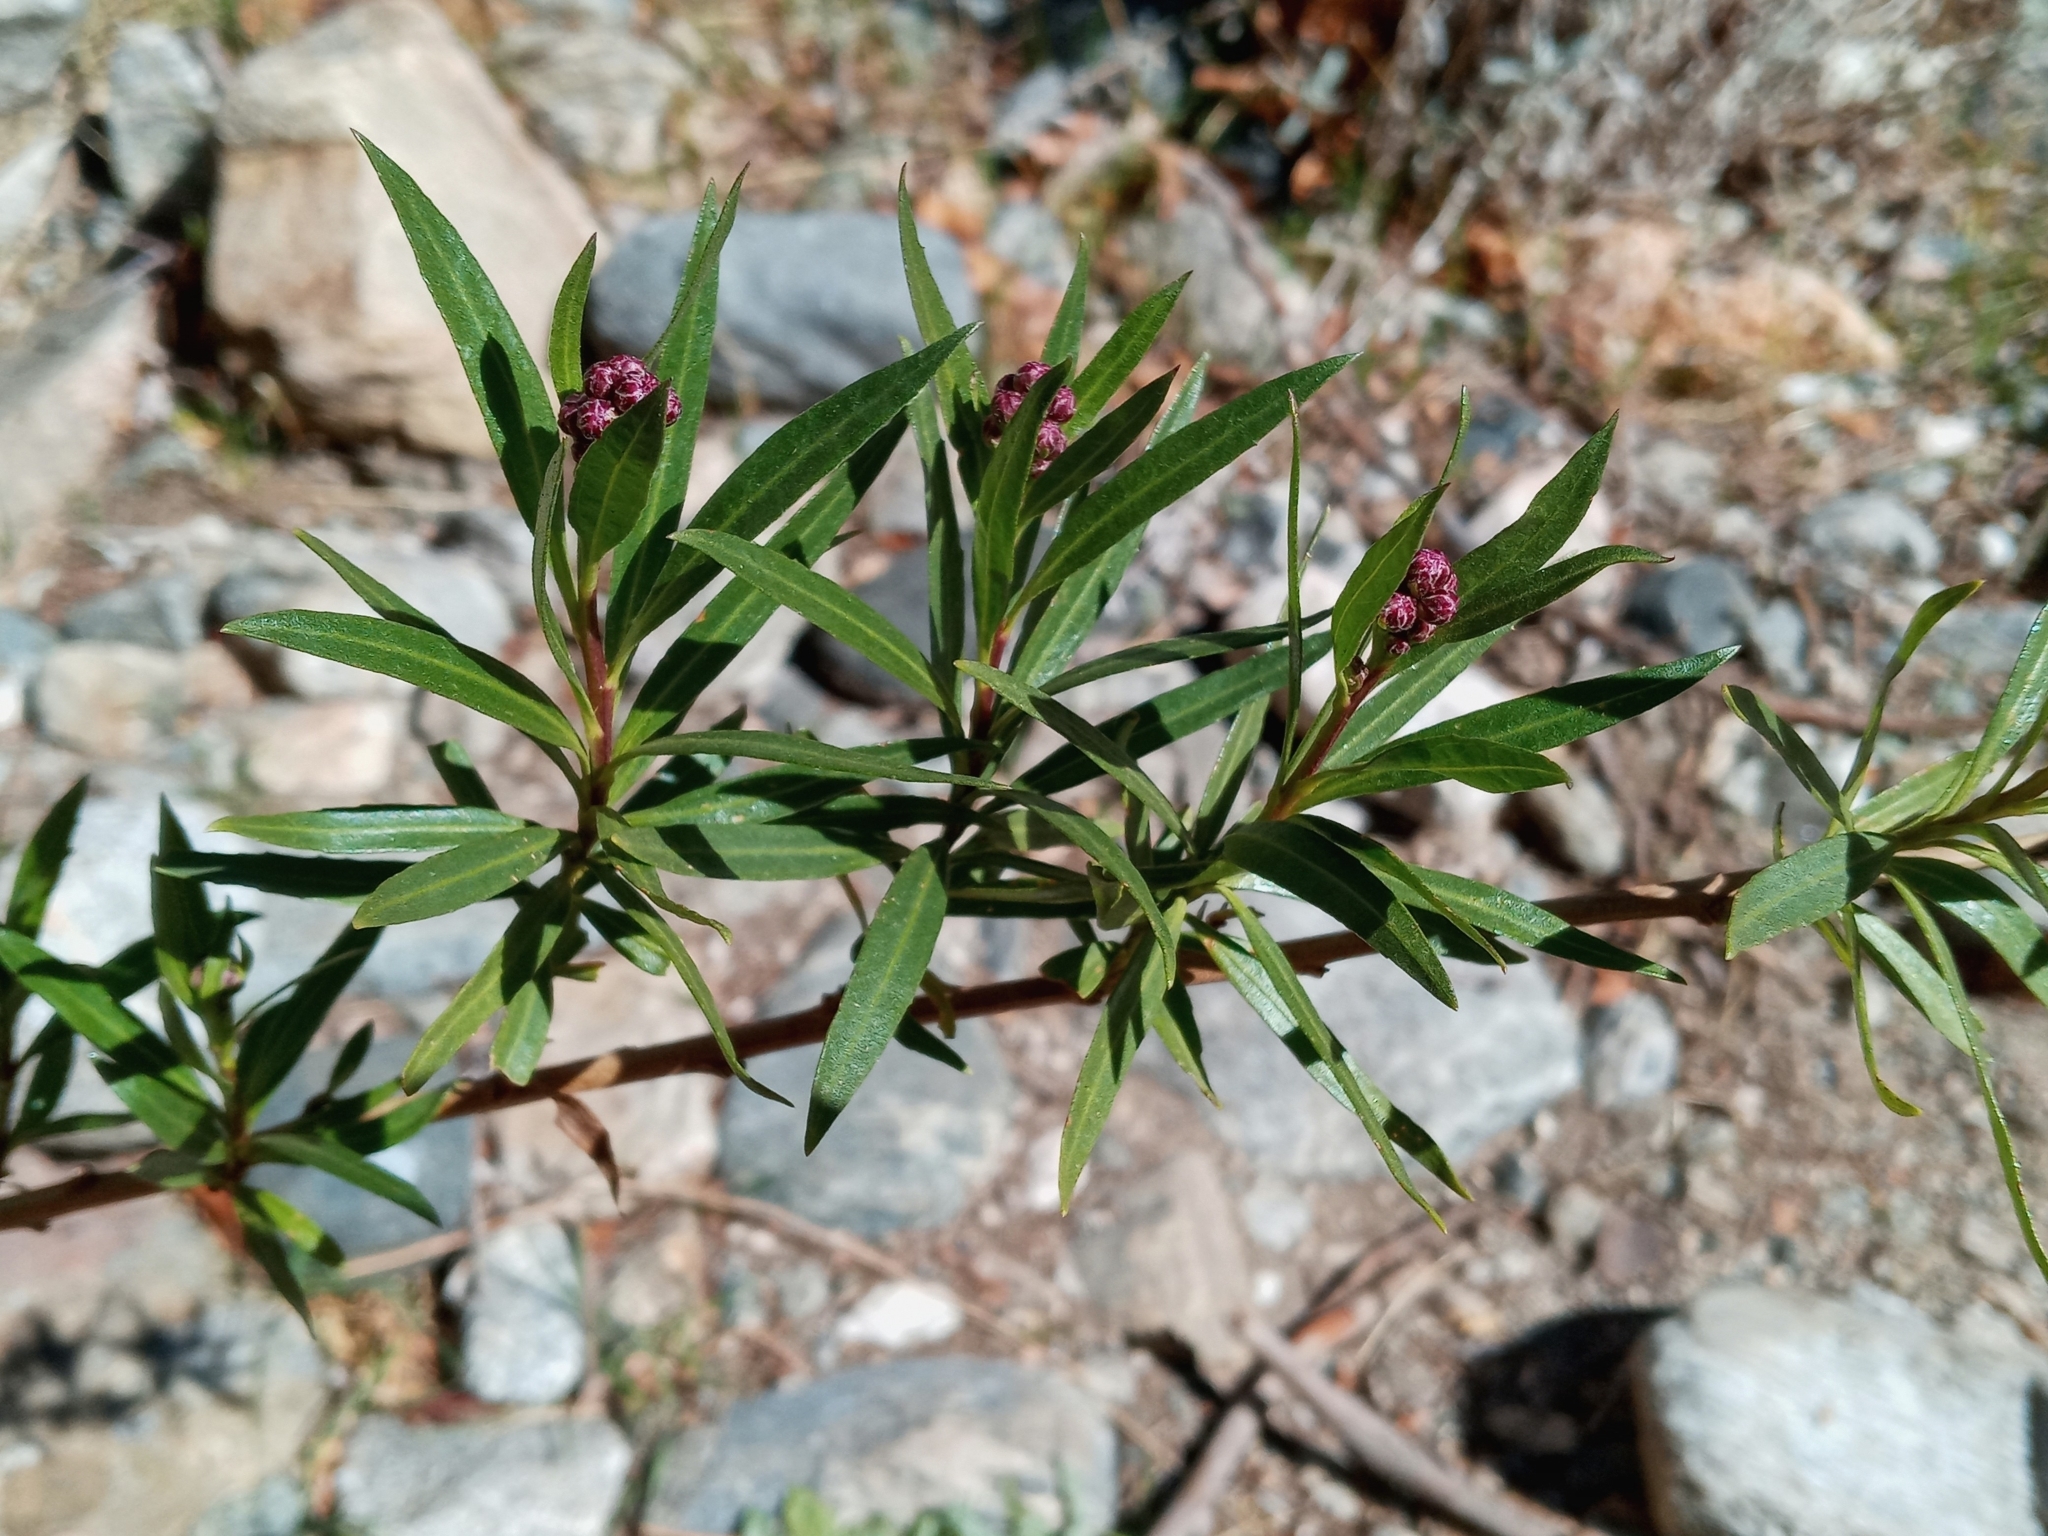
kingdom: Plantae
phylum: Tracheophyta
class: Magnoliopsida
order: Asterales
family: Asteraceae
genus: Baccharis
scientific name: Baccharis salicifolia
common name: Sticky baccharis
